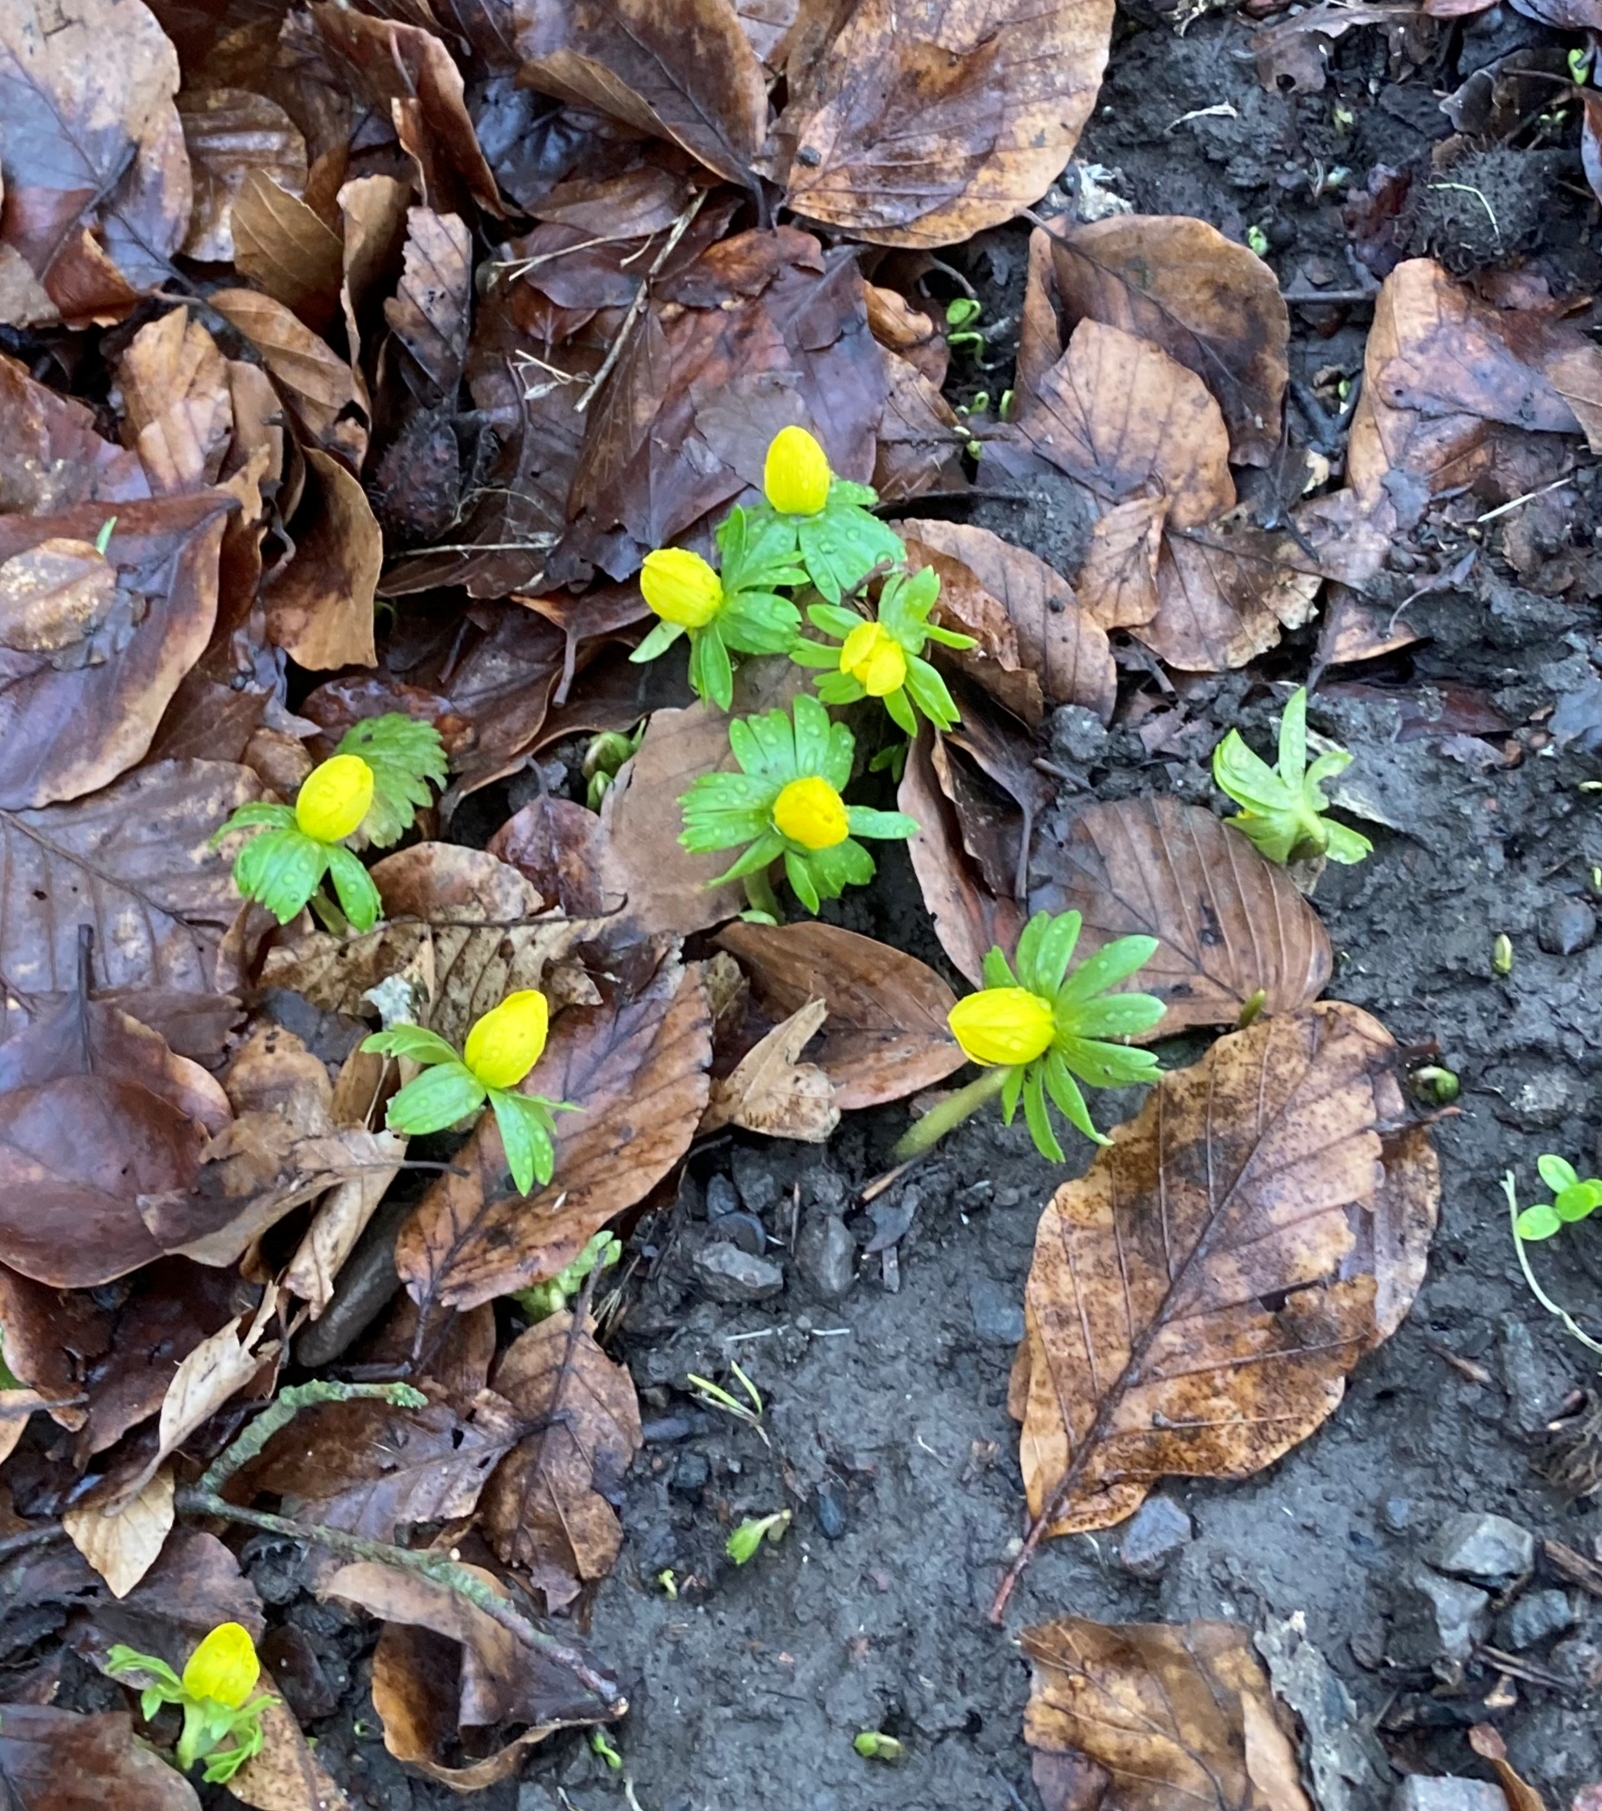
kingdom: Plantae
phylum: Tracheophyta
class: Magnoliopsida
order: Ranunculales
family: Ranunculaceae
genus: Eranthis
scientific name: Eranthis hyemalis
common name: Winter aconite
